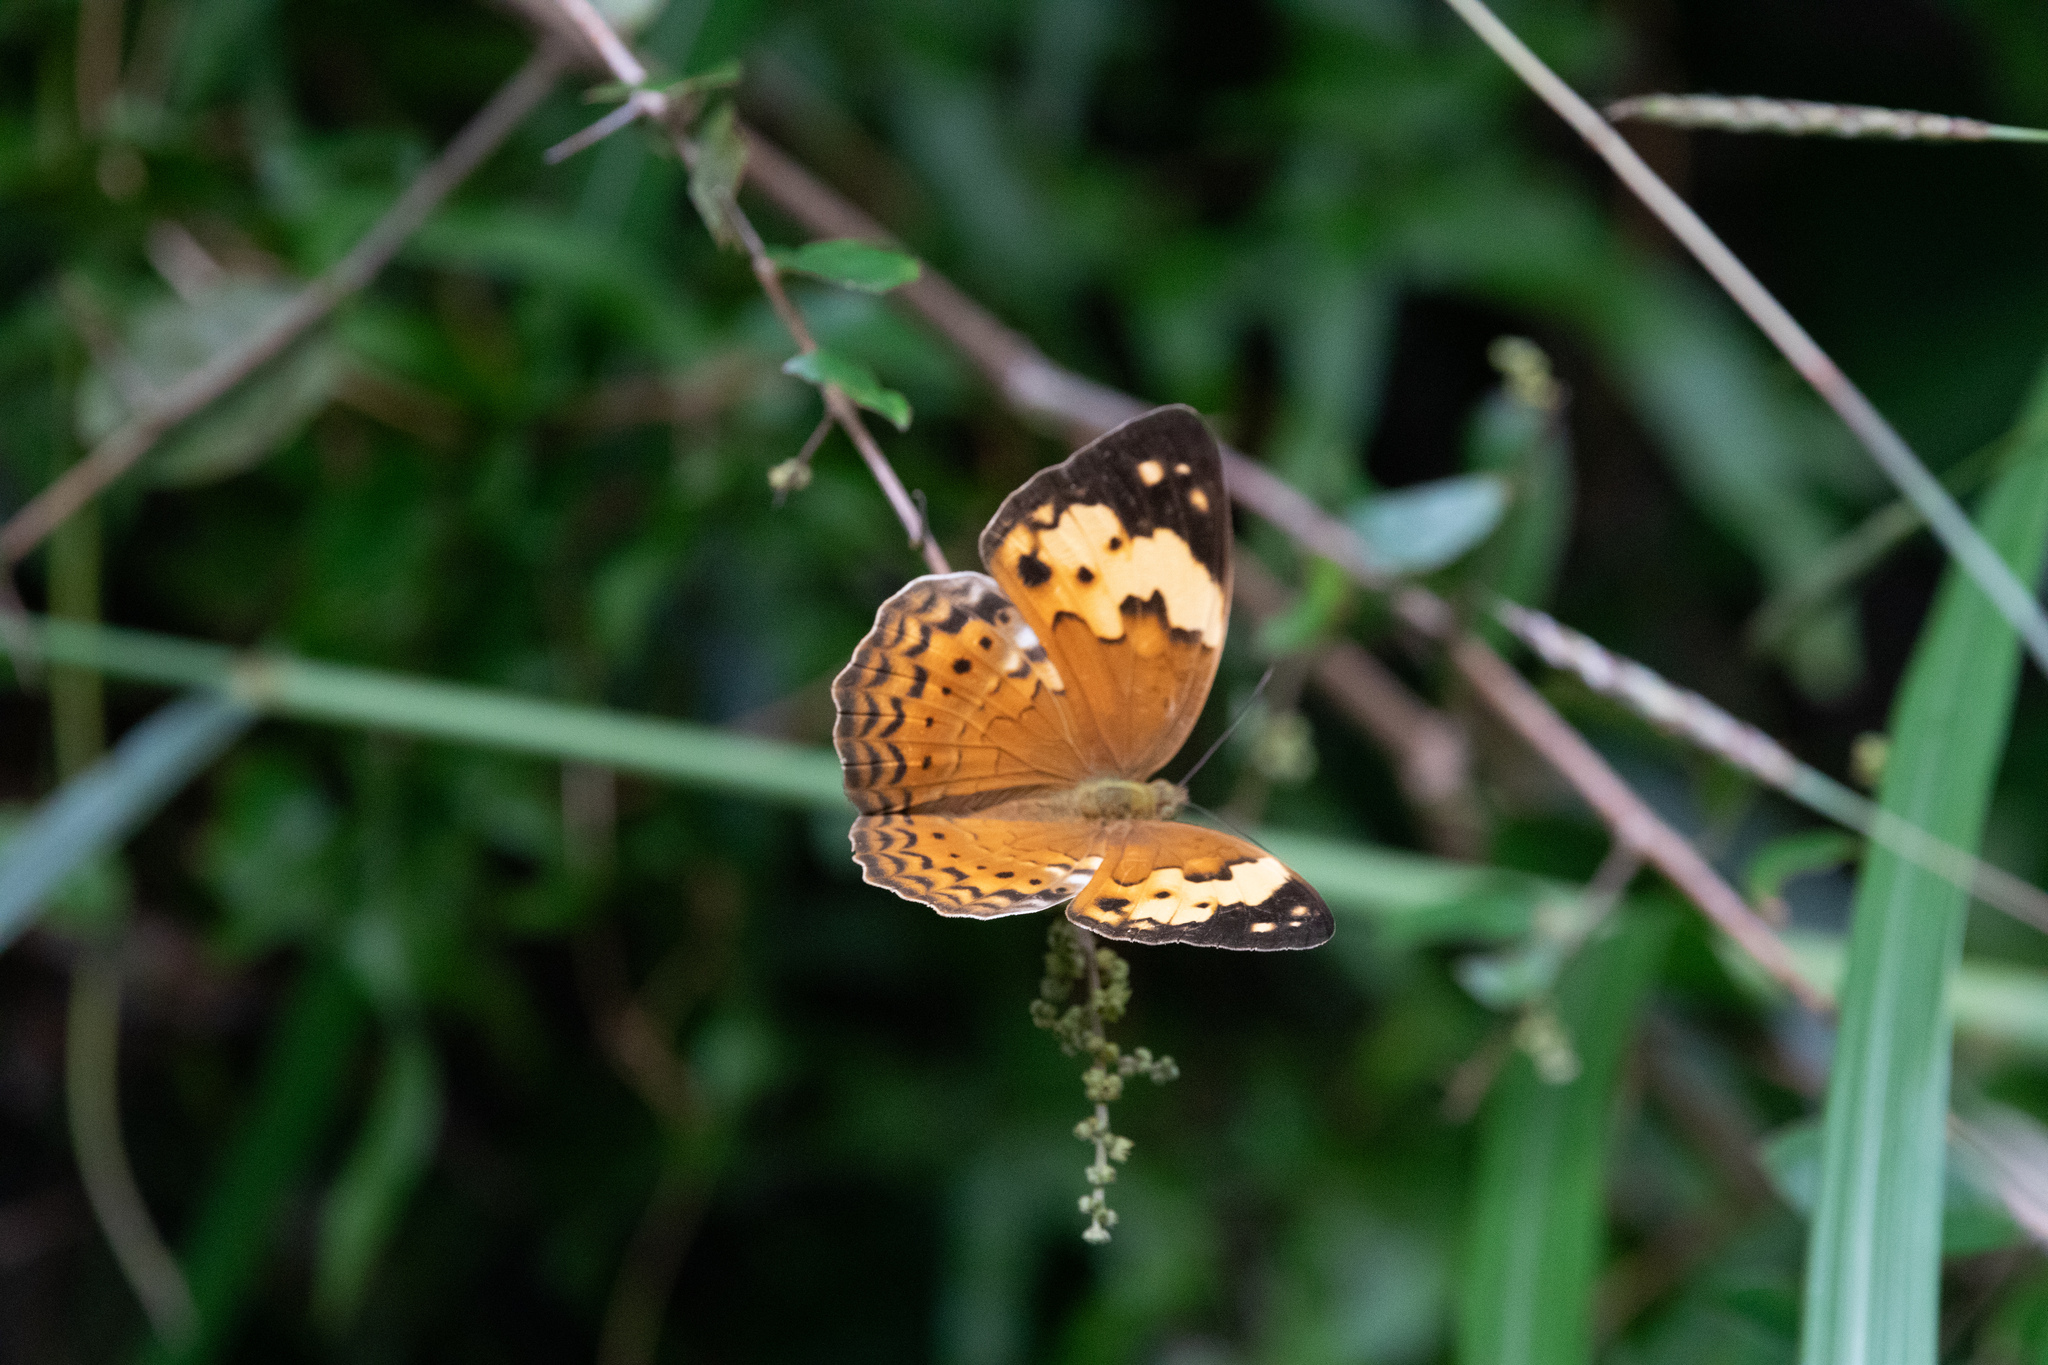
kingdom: Animalia
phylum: Arthropoda
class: Insecta
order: Lepidoptera
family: Nymphalidae
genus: Cupha
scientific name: Cupha erymanthis
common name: Rustic
